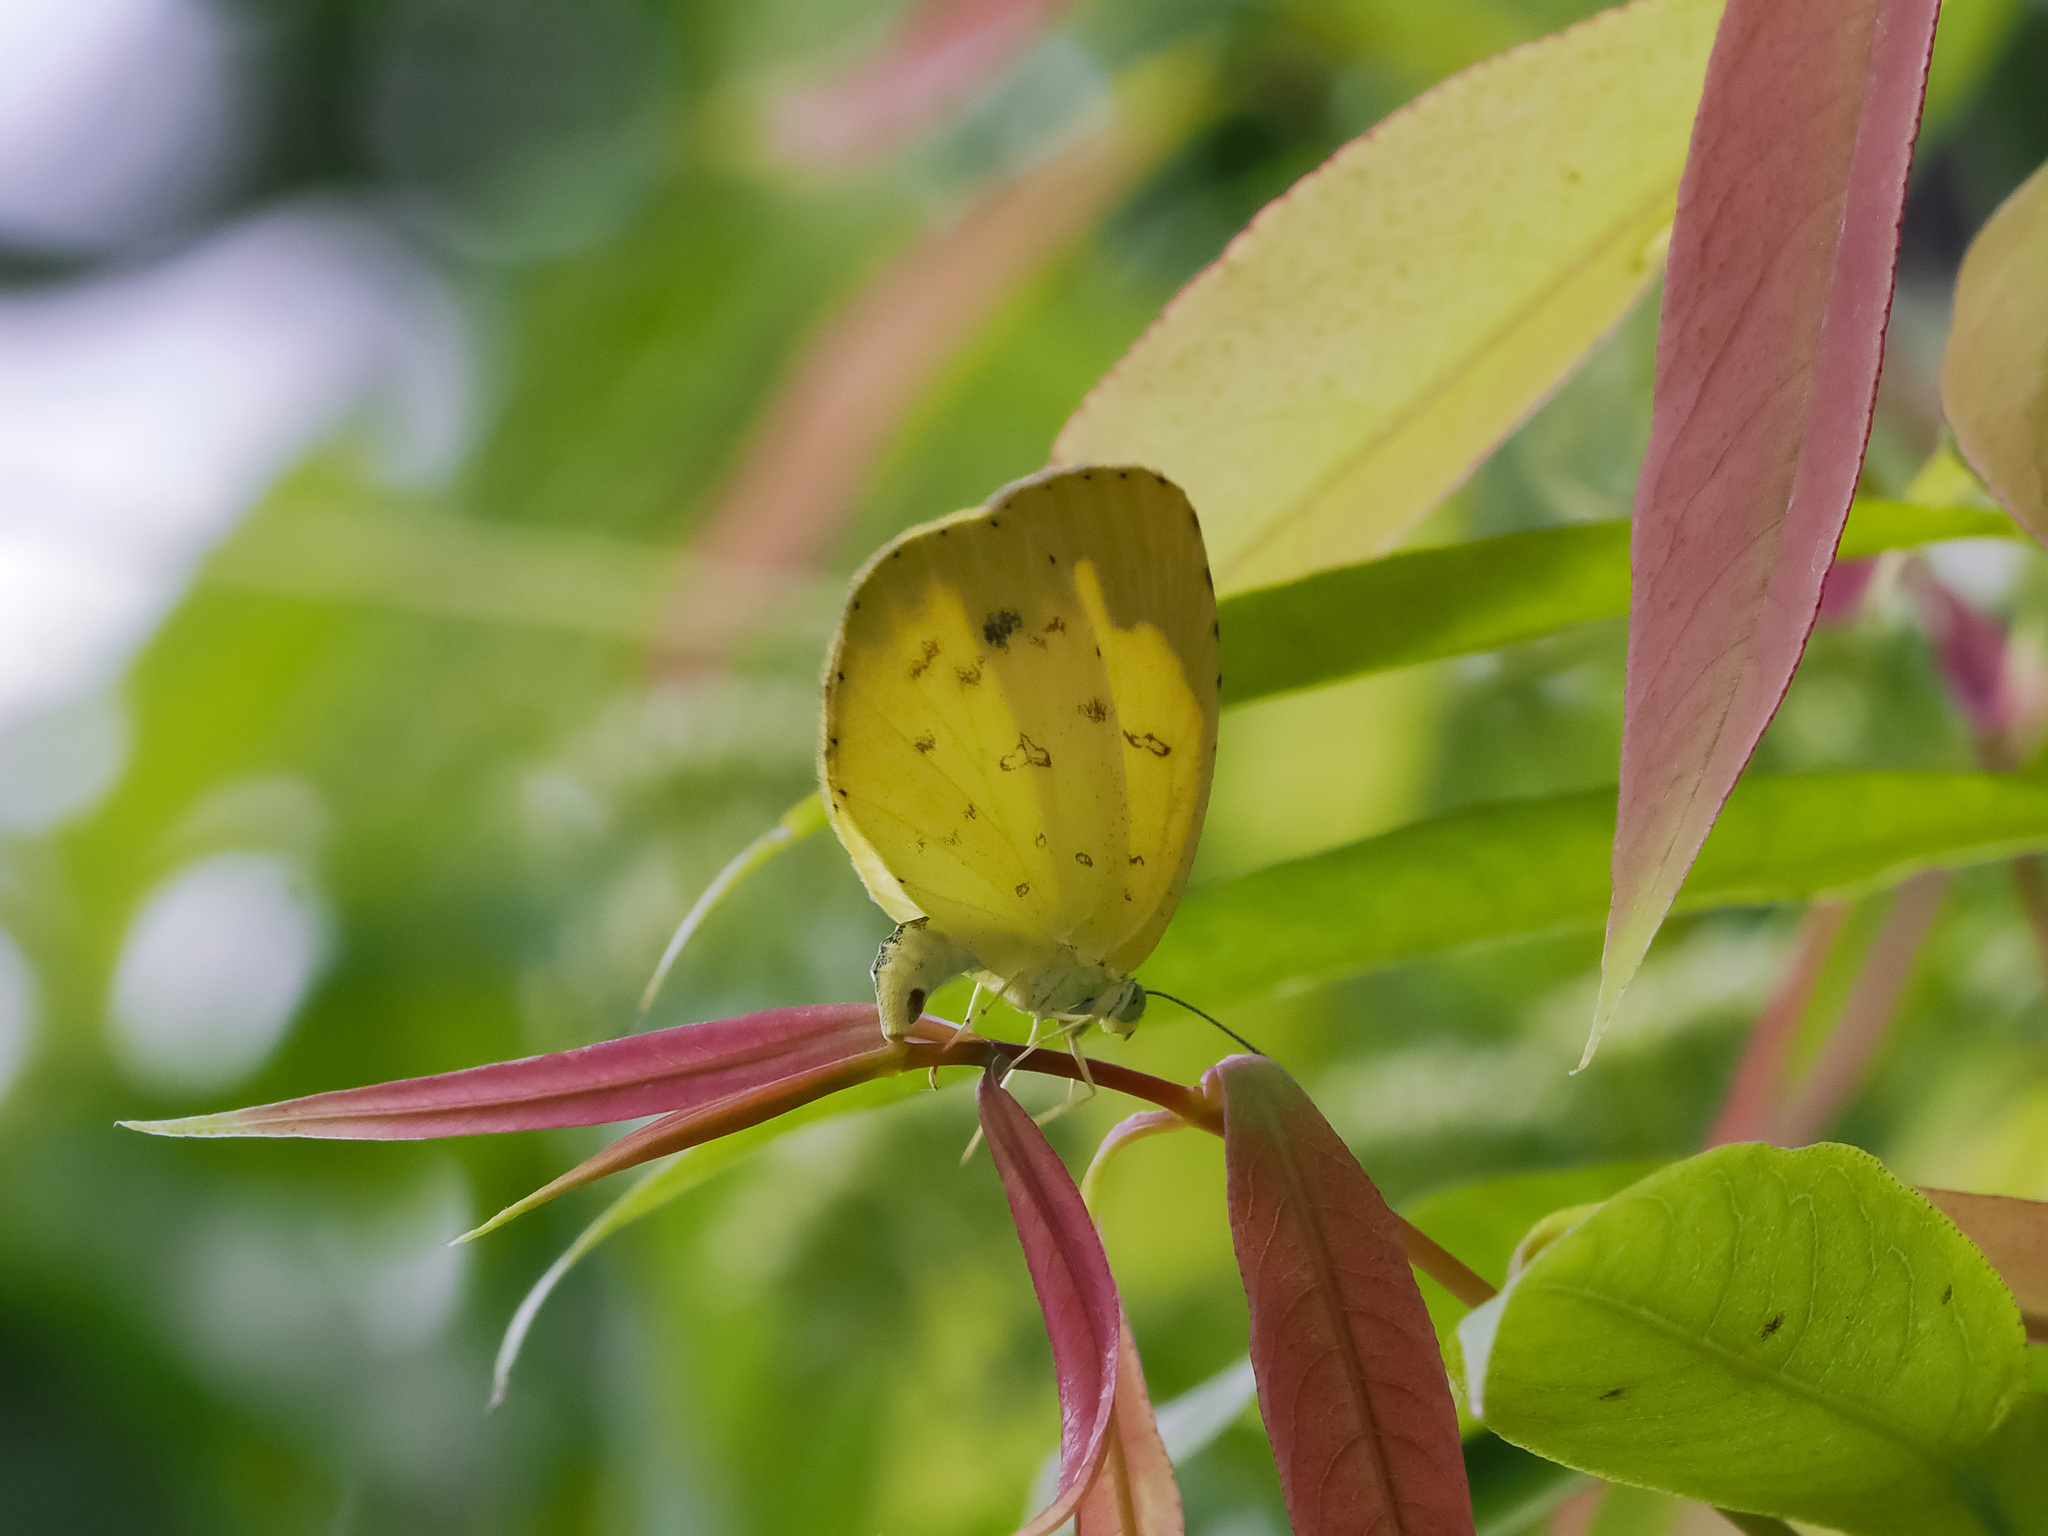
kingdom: Animalia
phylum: Arthropoda
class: Insecta
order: Lepidoptera
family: Pieridae
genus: Eurema
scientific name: Eurema hecabe
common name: Pale grass yellow
